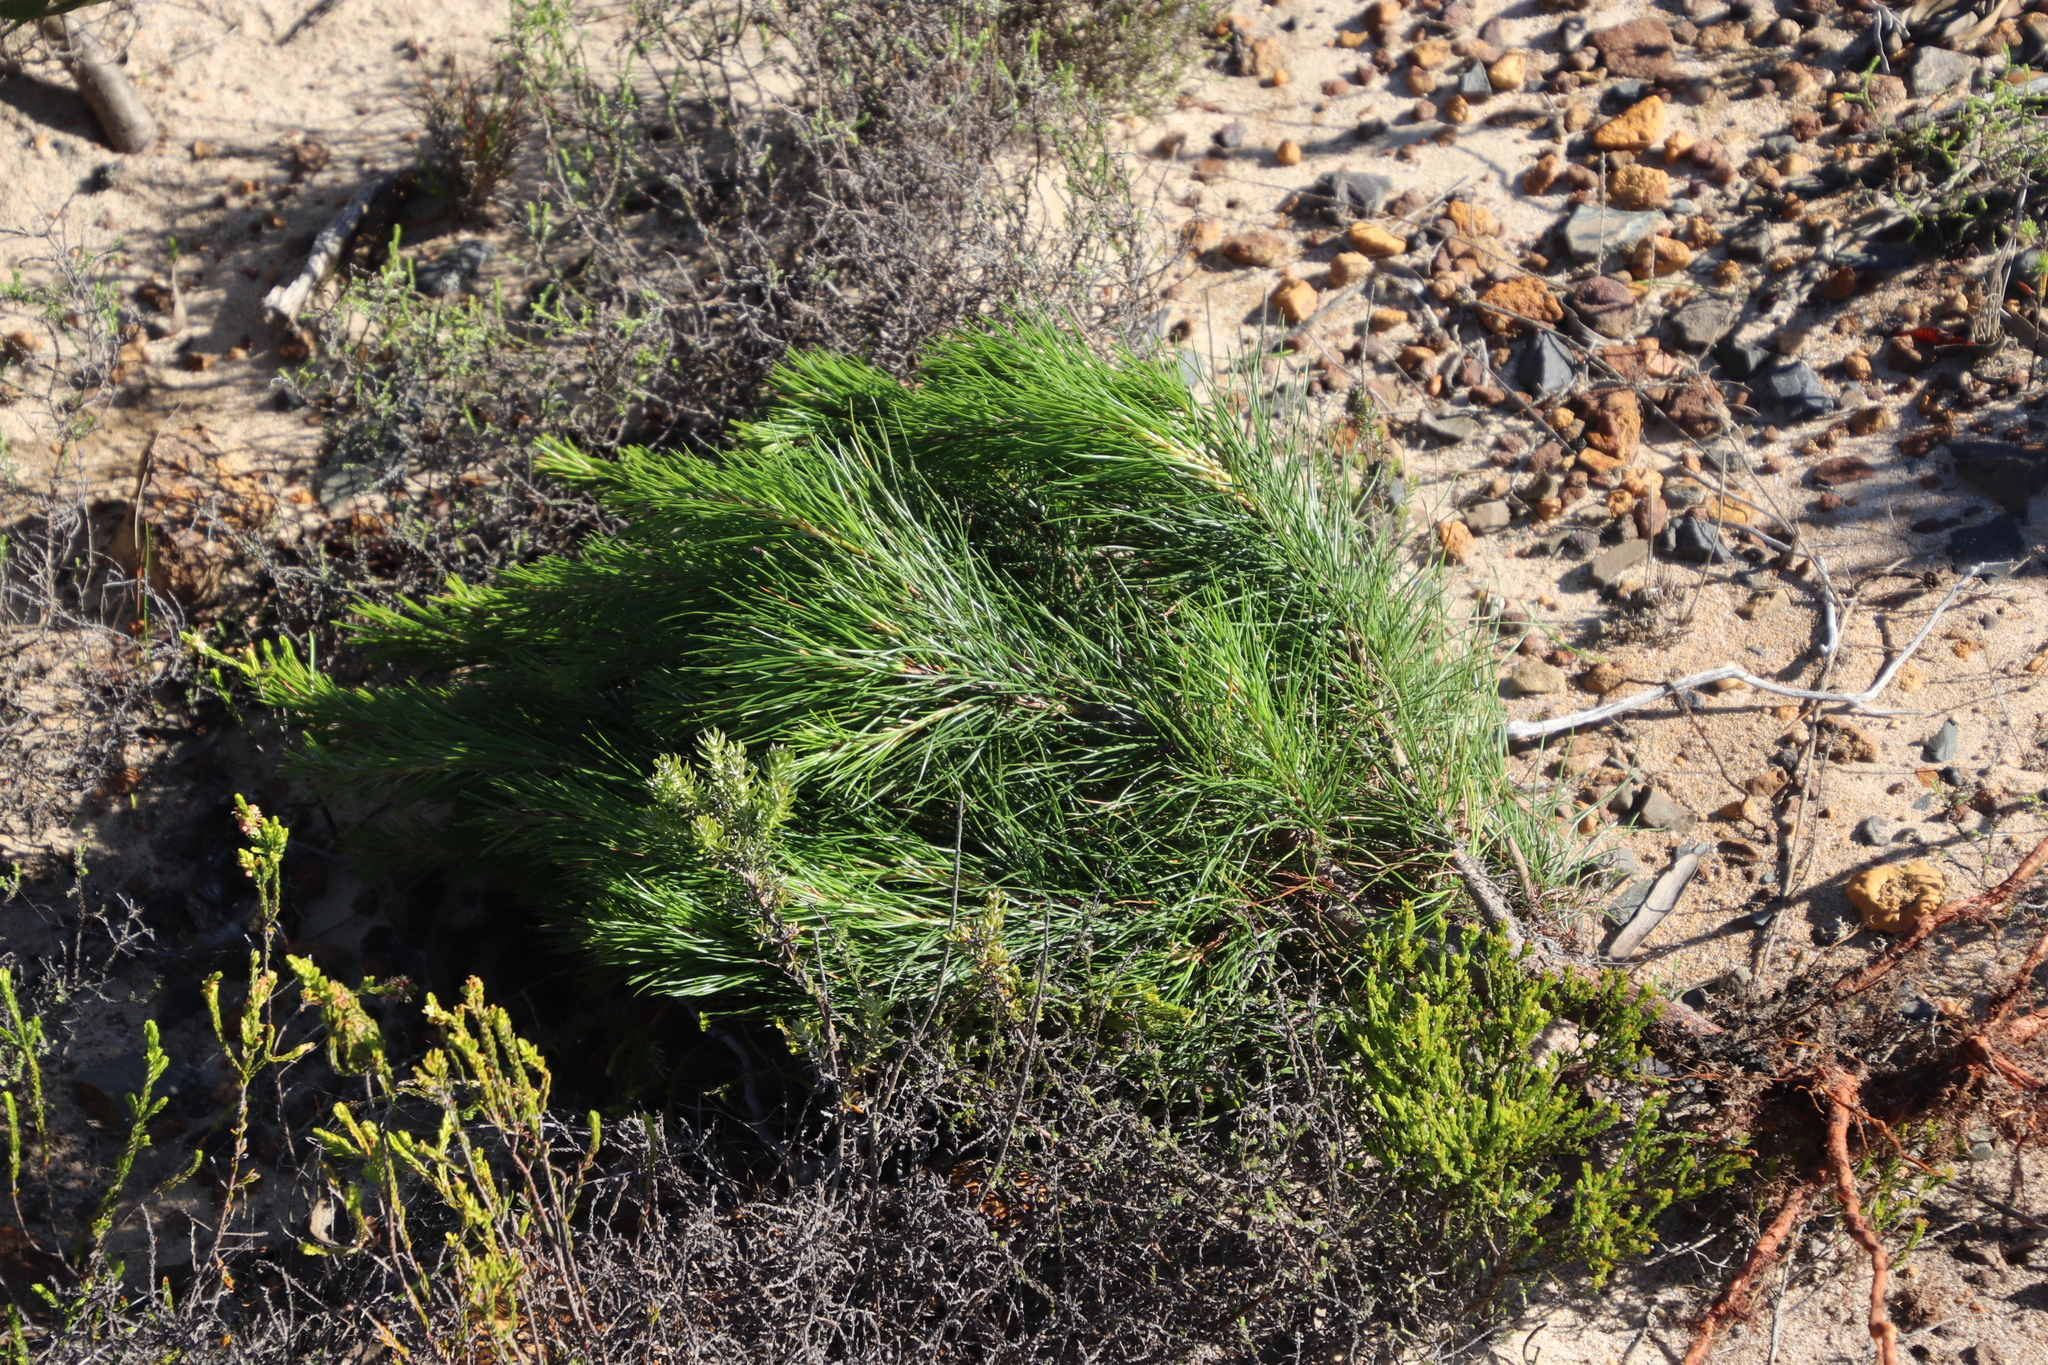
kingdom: Plantae
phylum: Tracheophyta
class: Pinopsida
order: Pinales
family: Pinaceae
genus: Pinus
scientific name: Pinus radiata
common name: Monterey pine
